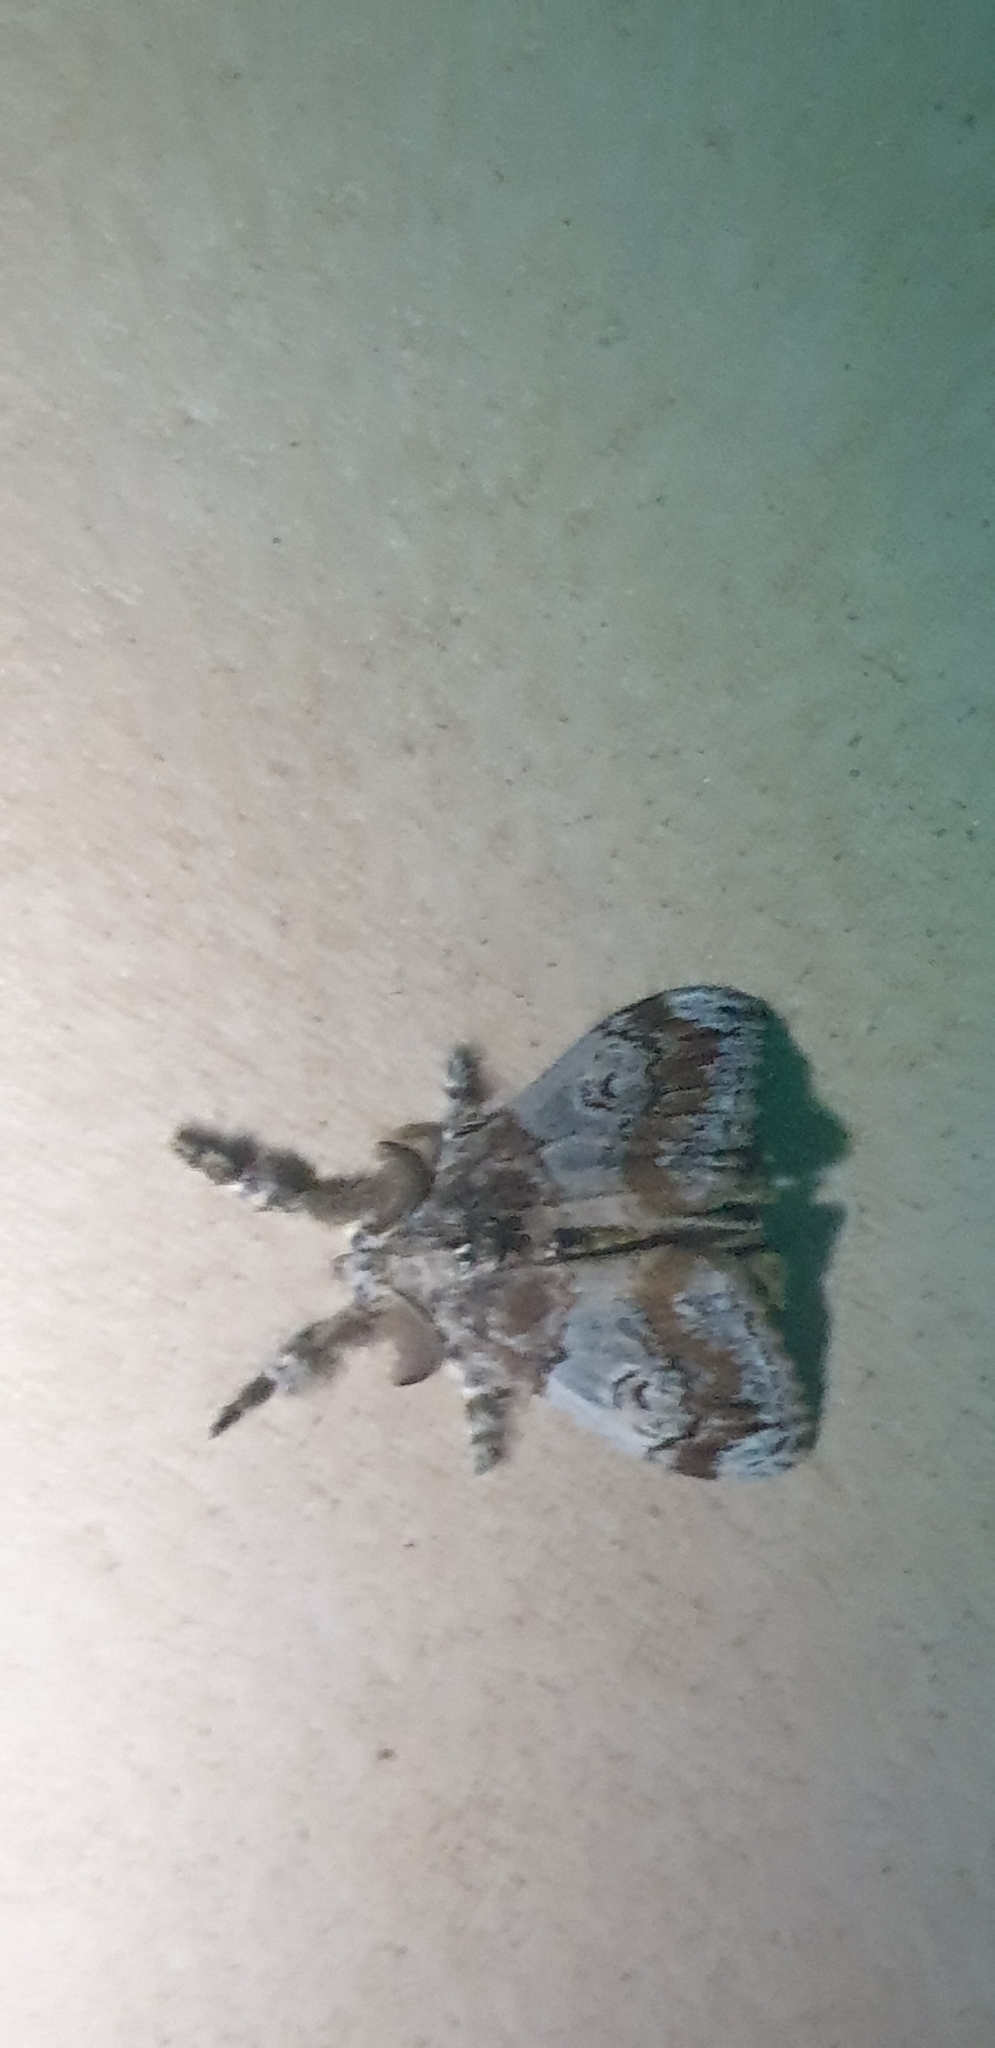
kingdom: Animalia
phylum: Arthropoda
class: Insecta
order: Lepidoptera
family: Erebidae
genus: Orgyia
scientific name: Orgyia australis
